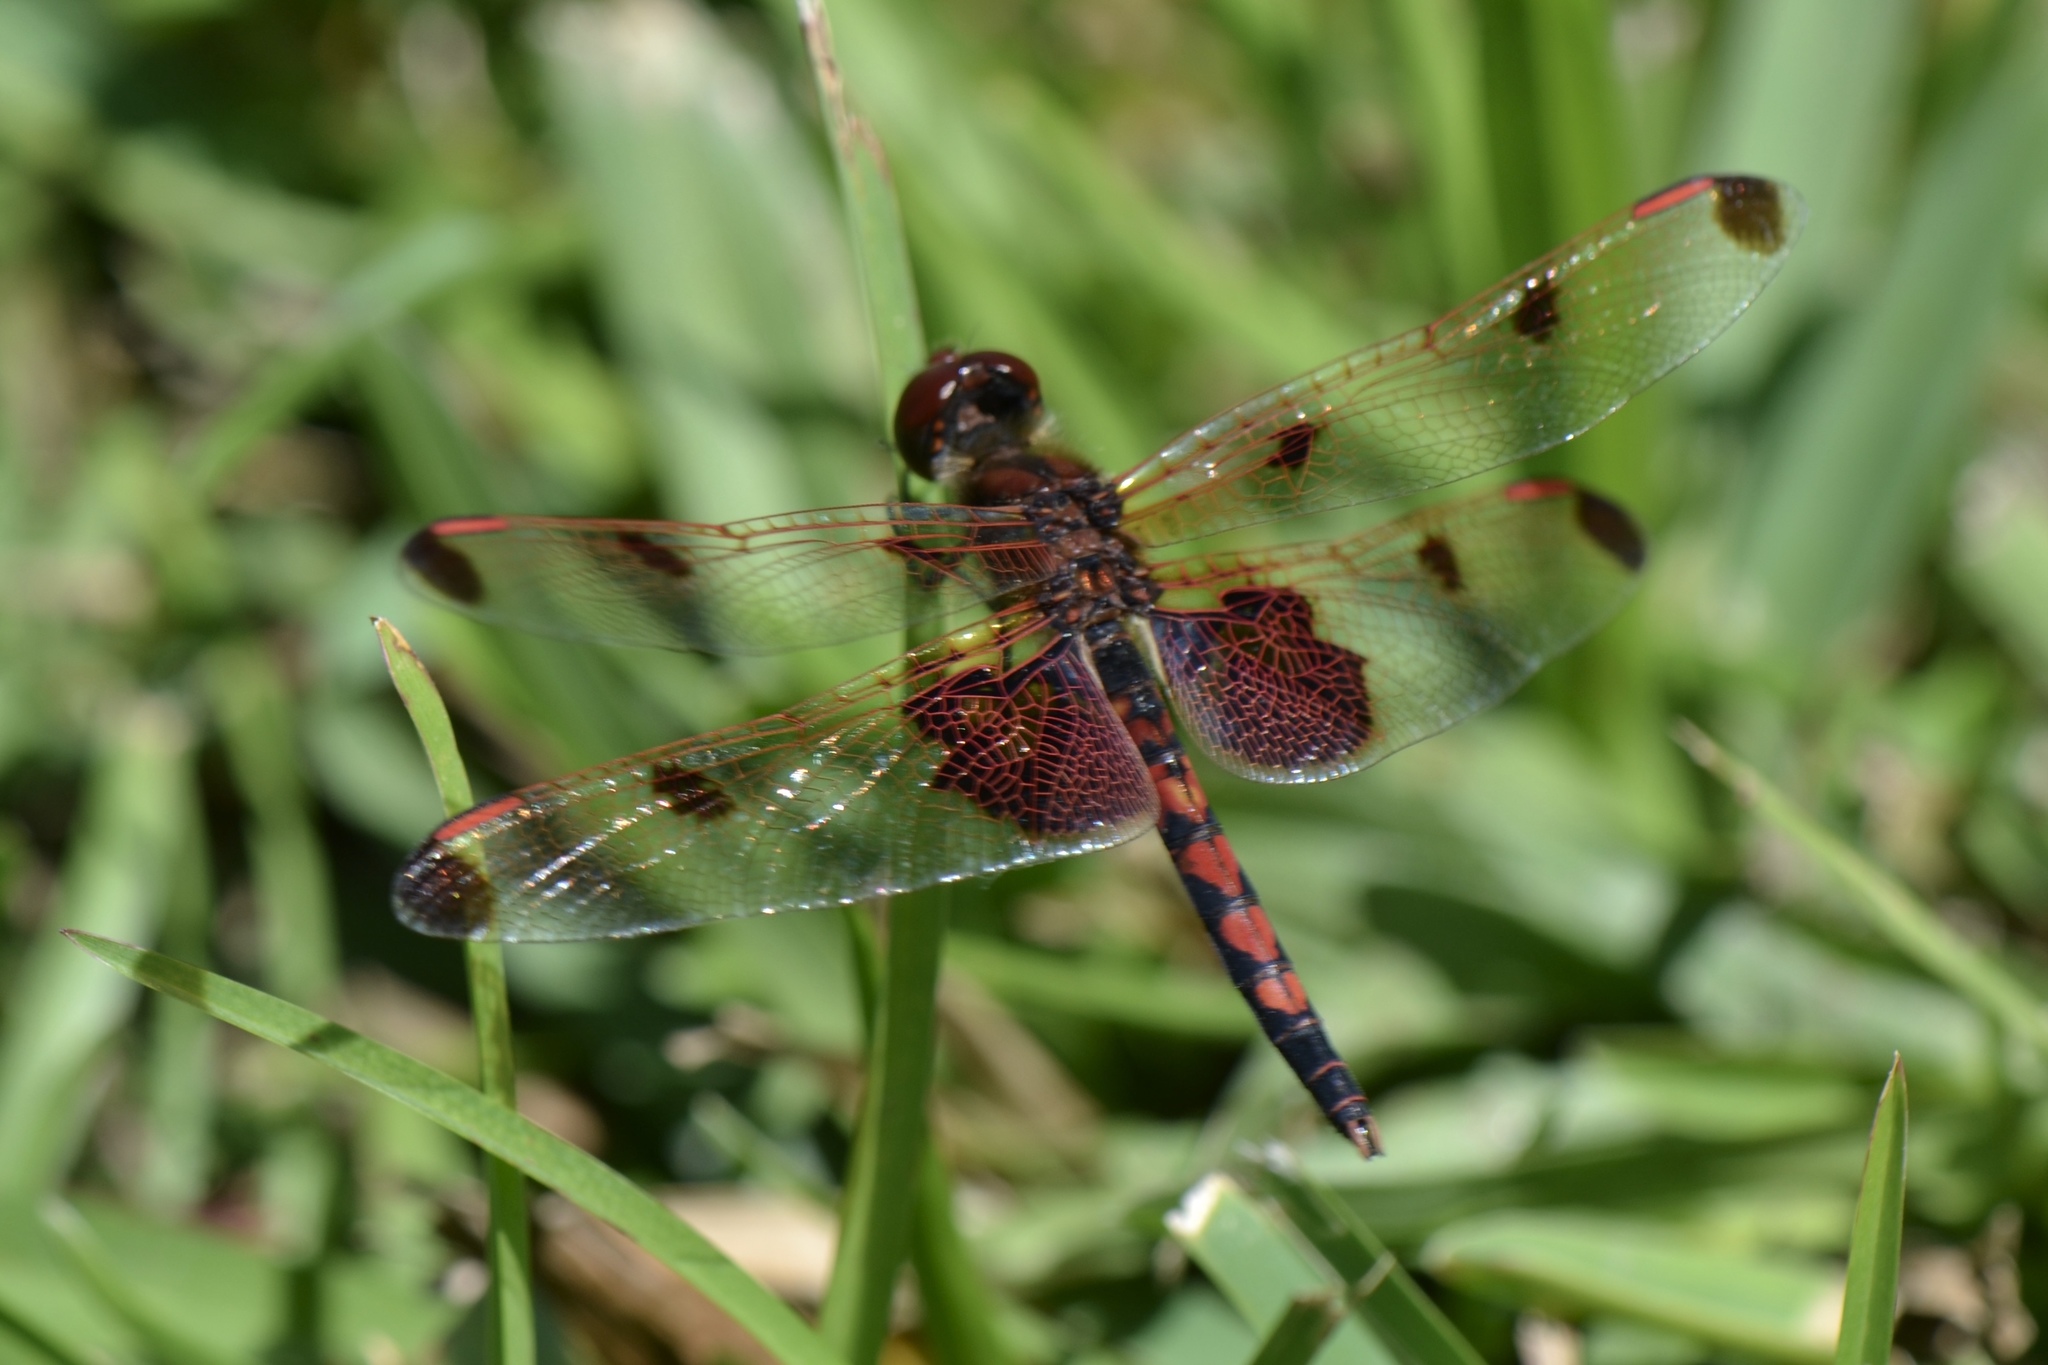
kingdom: Animalia
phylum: Arthropoda
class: Insecta
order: Odonata
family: Libellulidae
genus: Celithemis
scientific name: Celithemis elisa
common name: Calico pennant
